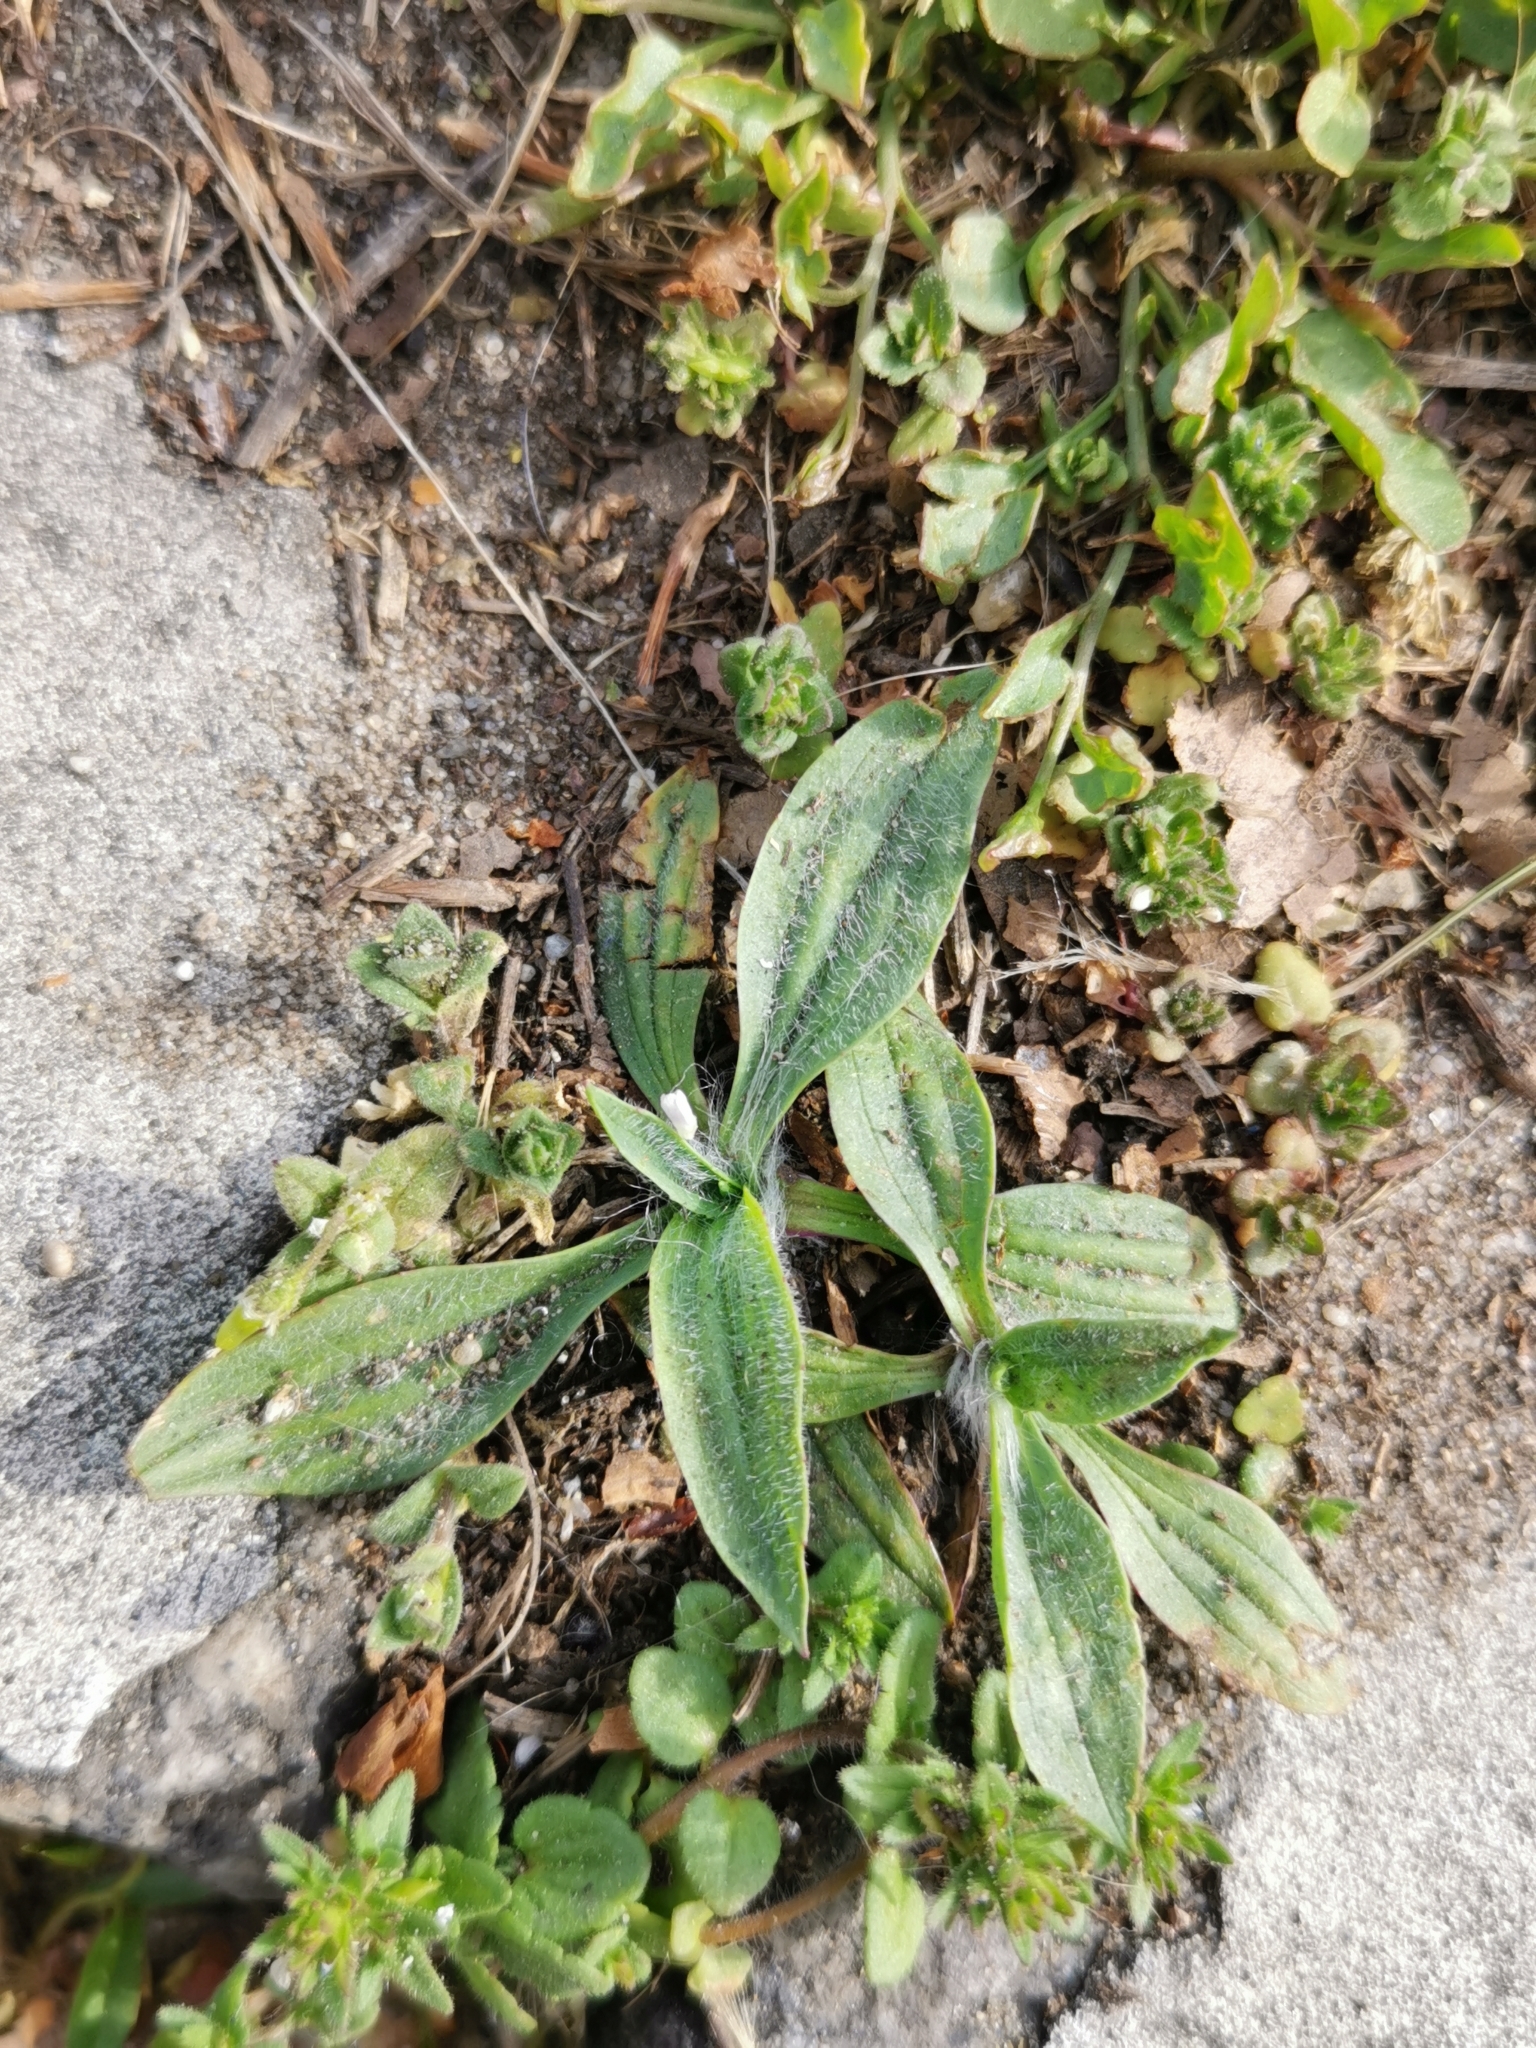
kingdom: Plantae
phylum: Tracheophyta
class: Magnoliopsida
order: Lamiales
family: Plantaginaceae
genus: Plantago
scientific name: Plantago lanceolata
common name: Ribwort plantain
